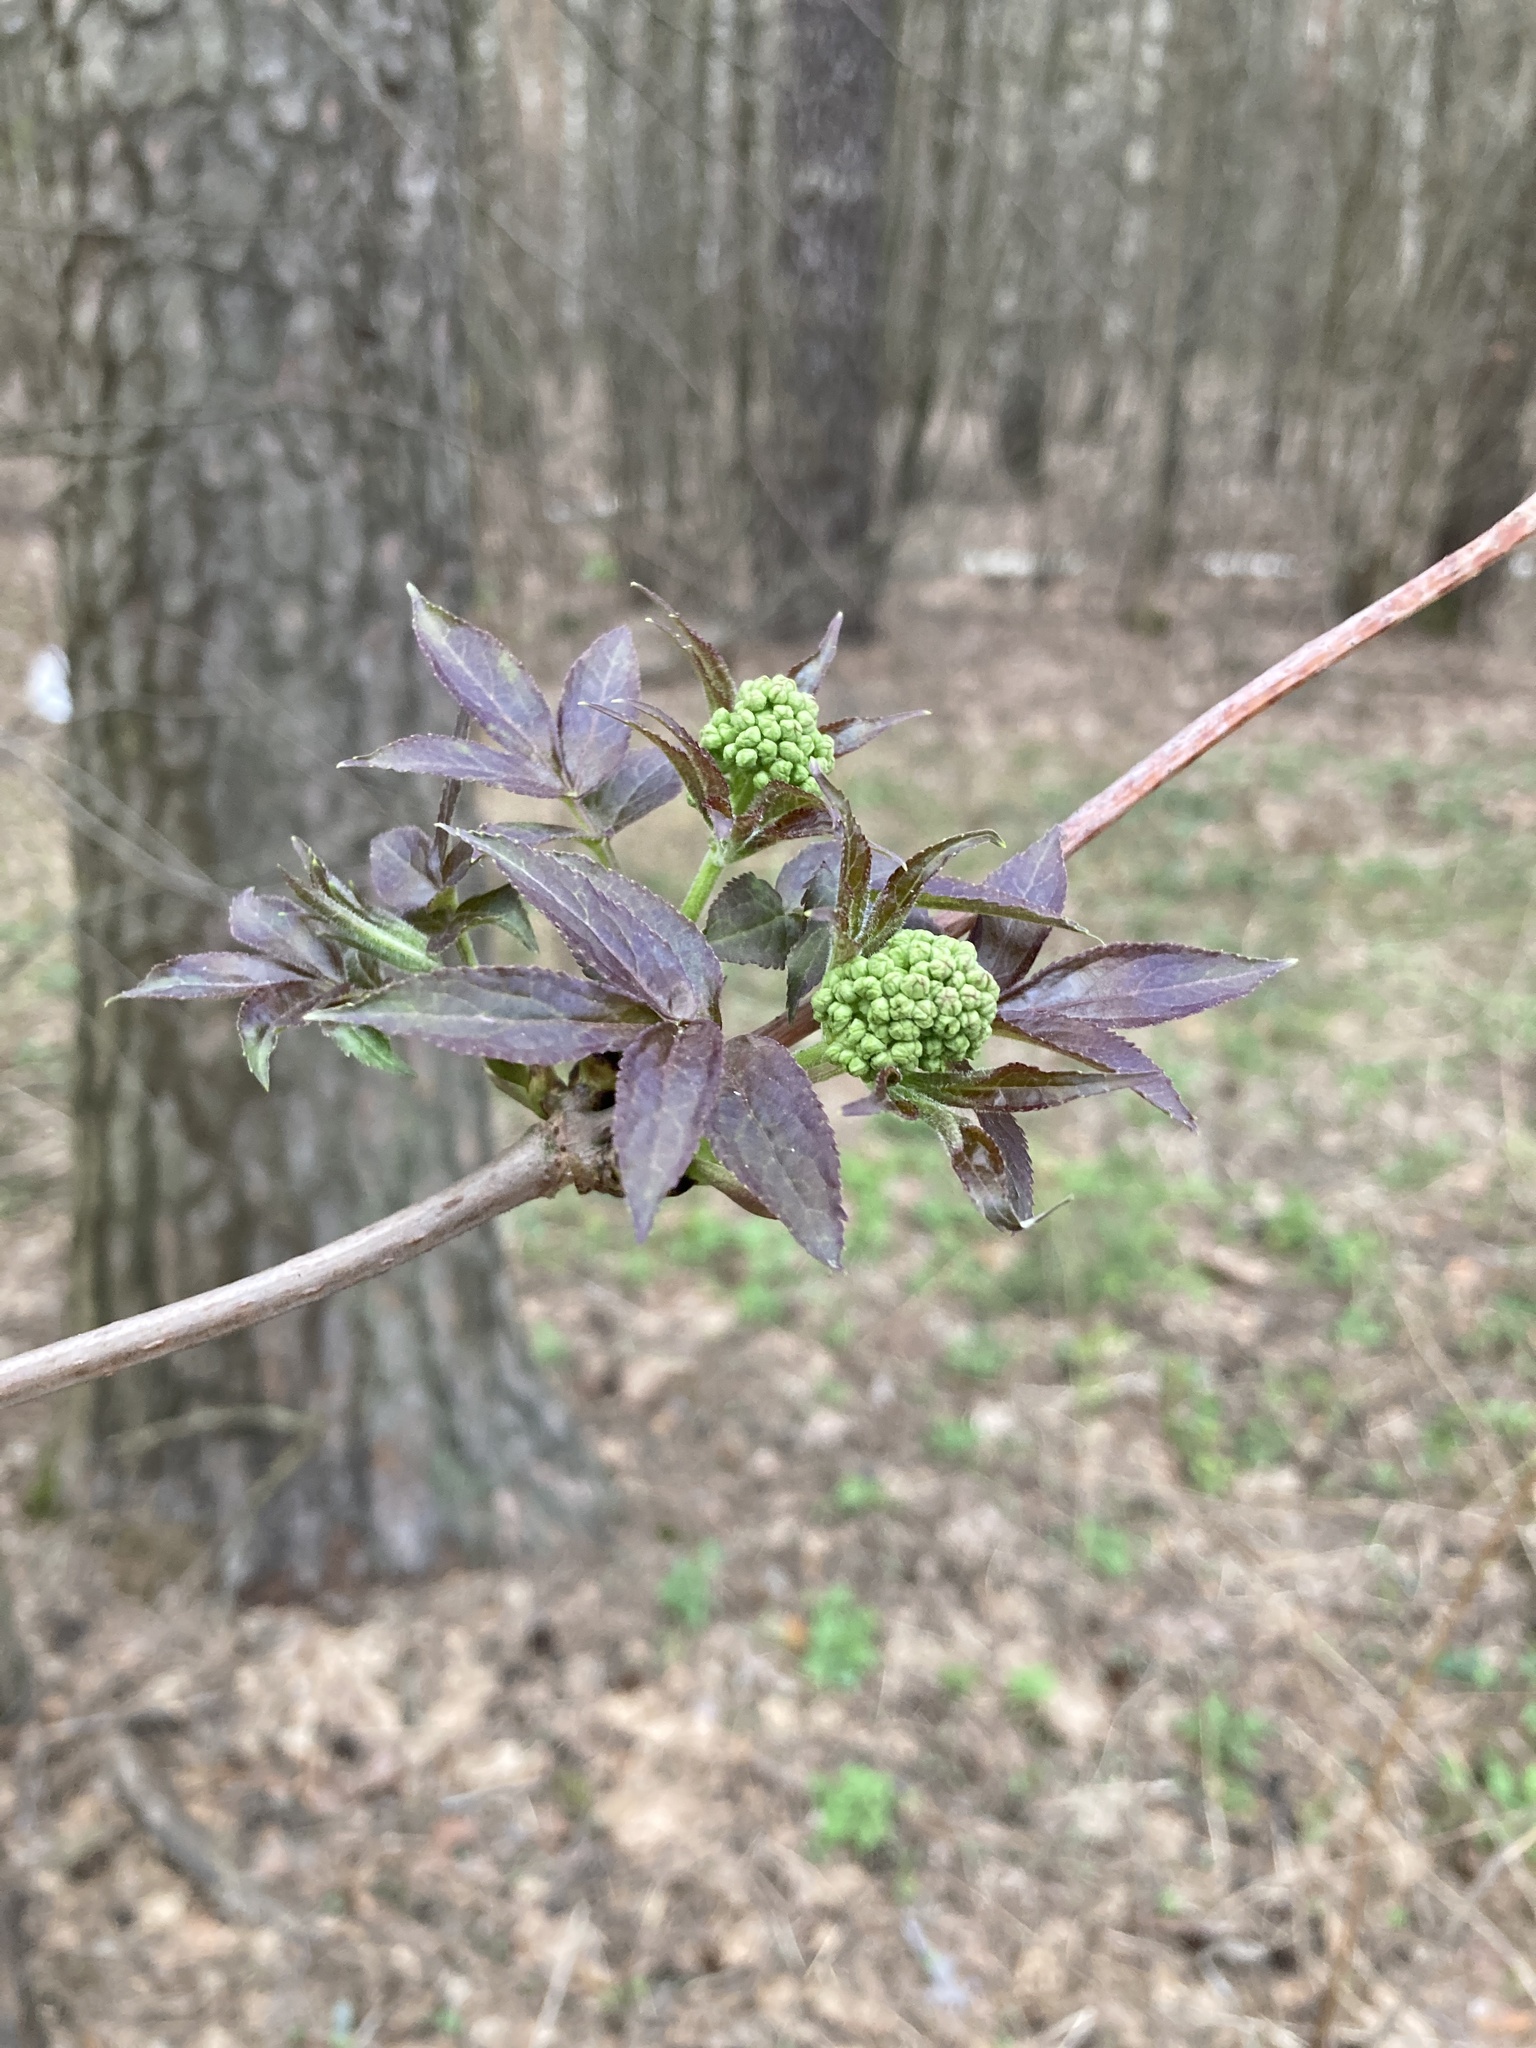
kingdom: Plantae
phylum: Tracheophyta
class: Magnoliopsida
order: Dipsacales
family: Viburnaceae
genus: Sambucus
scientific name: Sambucus racemosa
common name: Red-berried elder
